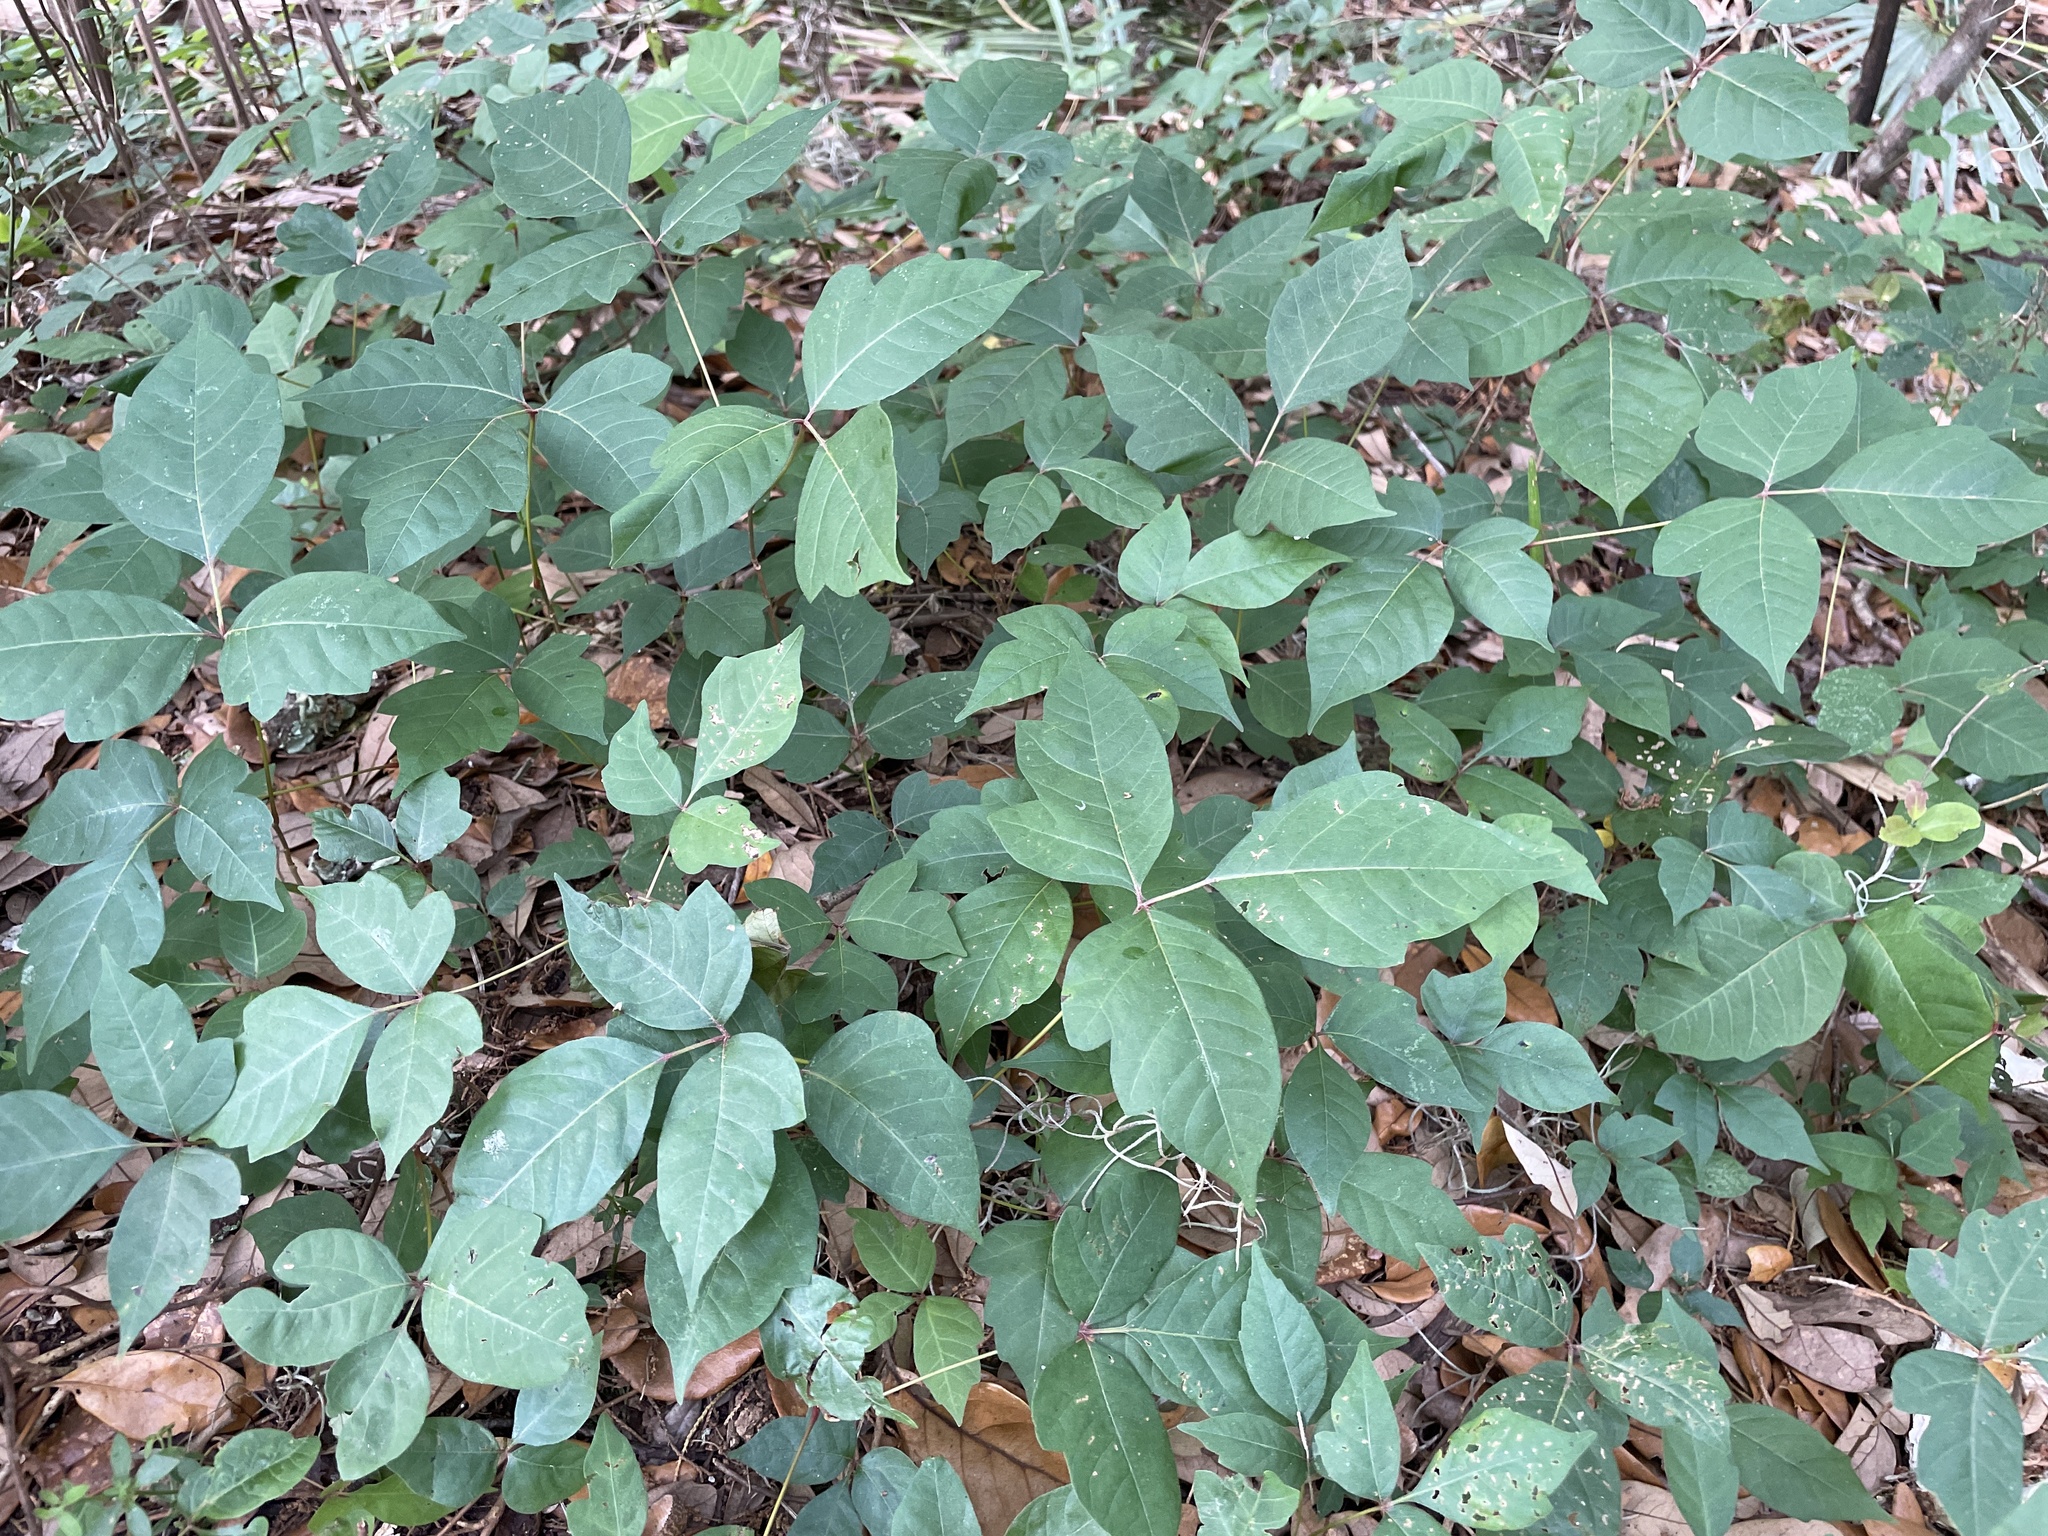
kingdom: Plantae
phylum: Tracheophyta
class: Magnoliopsida
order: Sapindales
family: Anacardiaceae
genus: Toxicodendron
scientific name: Toxicodendron radicans
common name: Poison ivy
